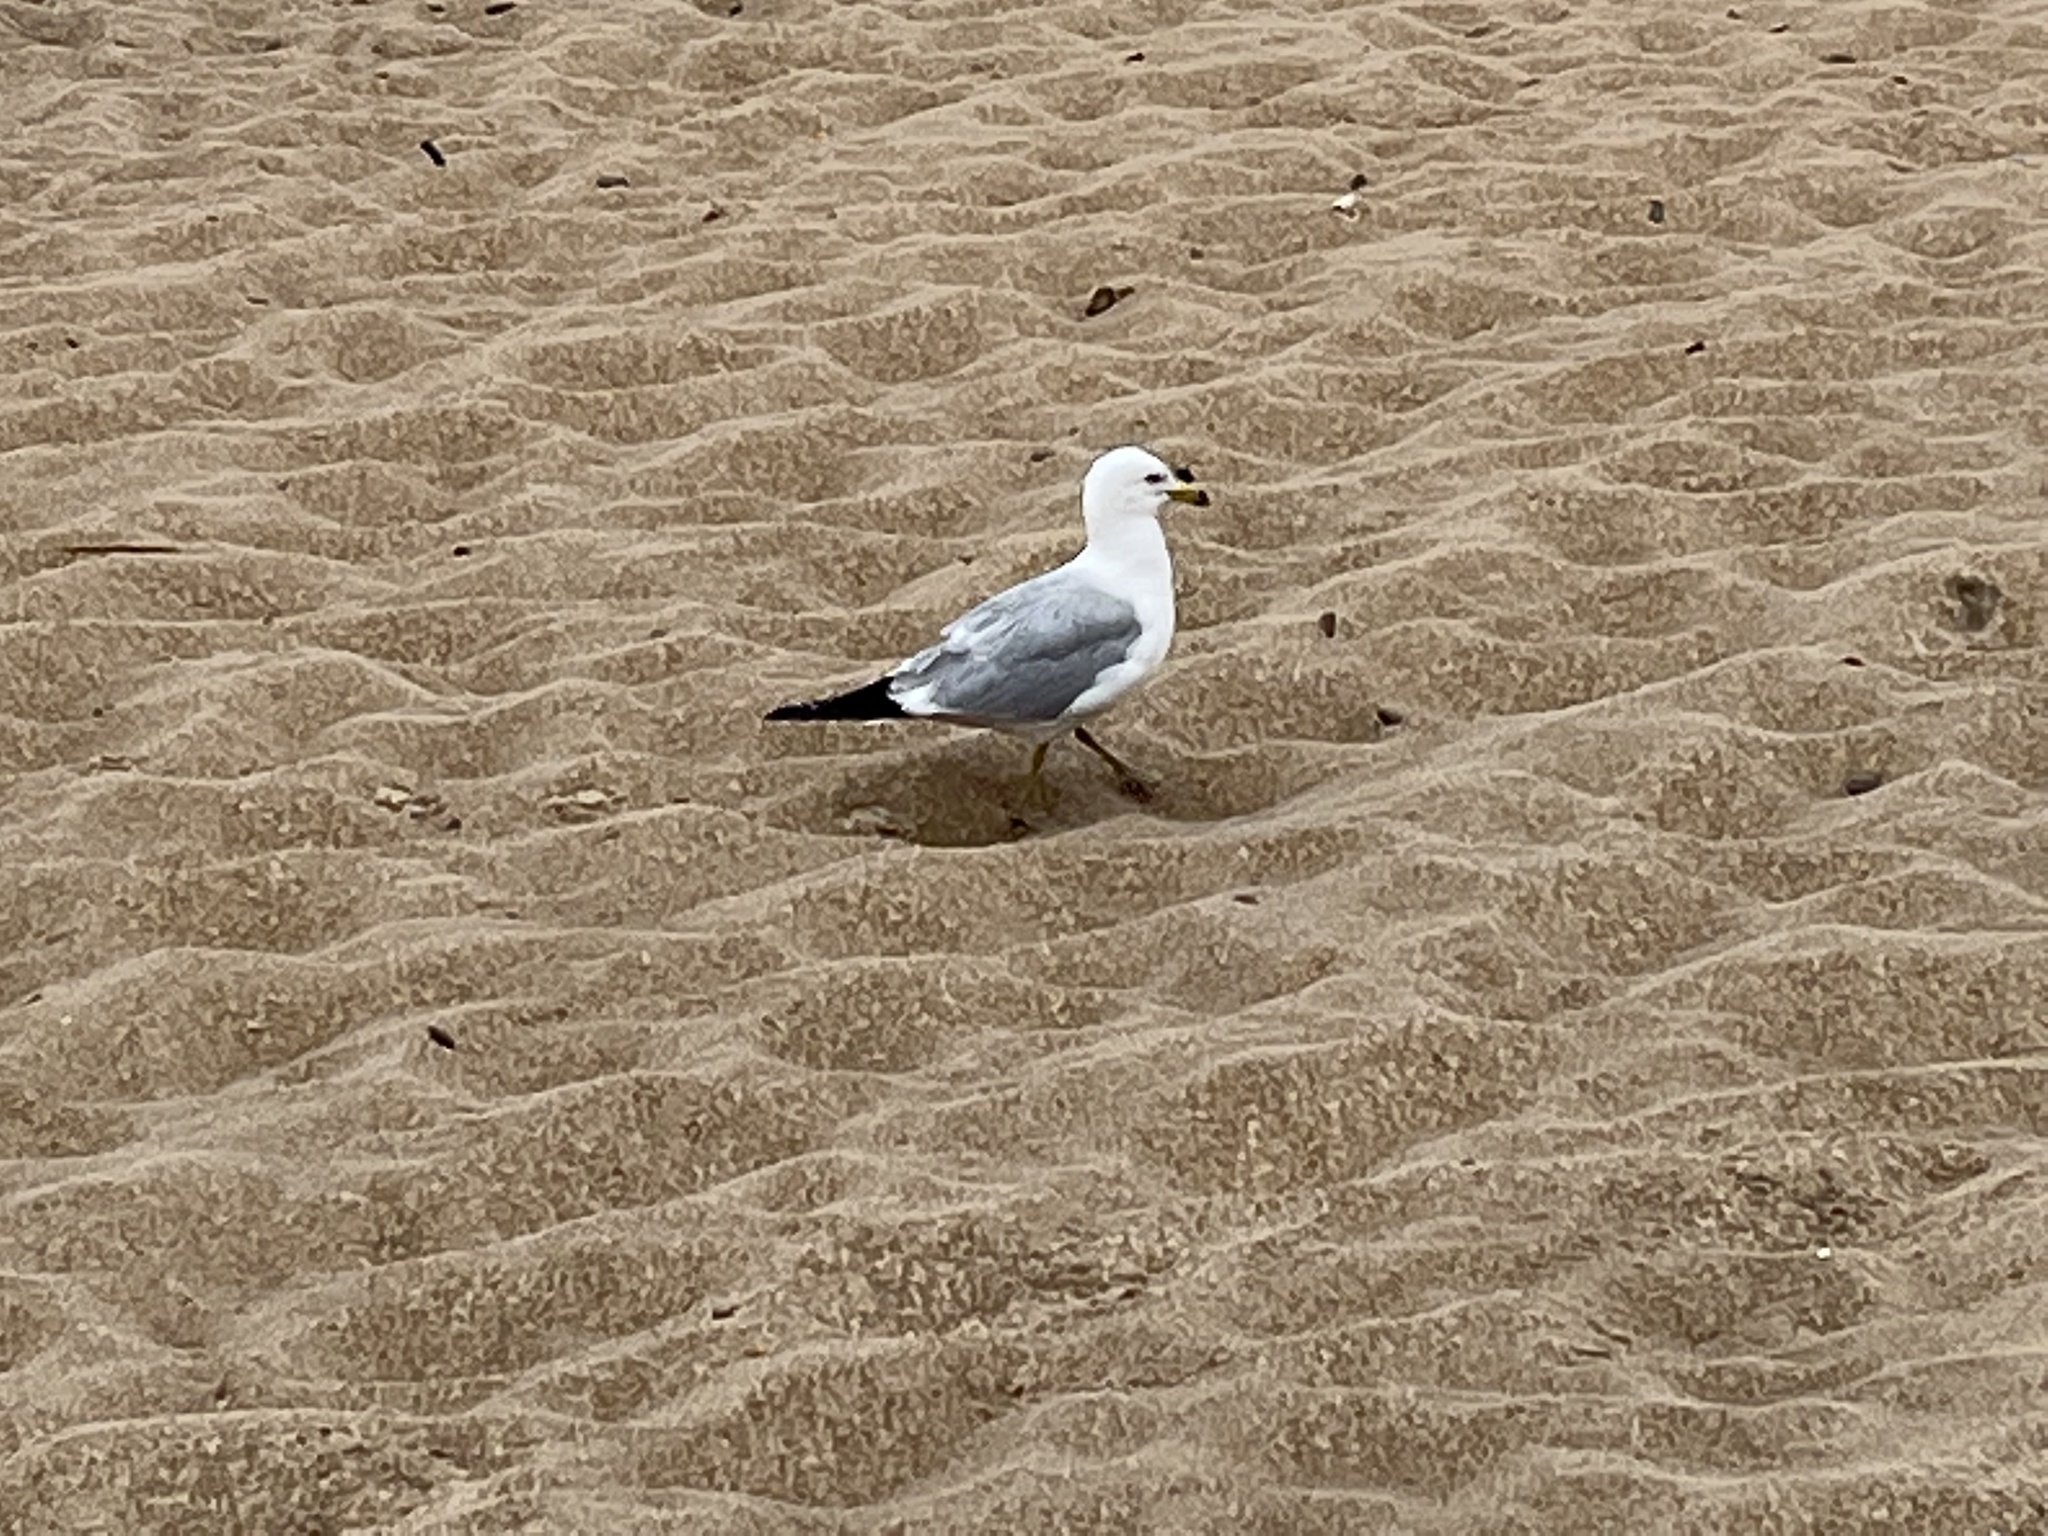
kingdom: Animalia
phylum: Chordata
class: Aves
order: Charadriiformes
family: Laridae
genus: Larus
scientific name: Larus delawarensis
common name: Ring-billed gull
